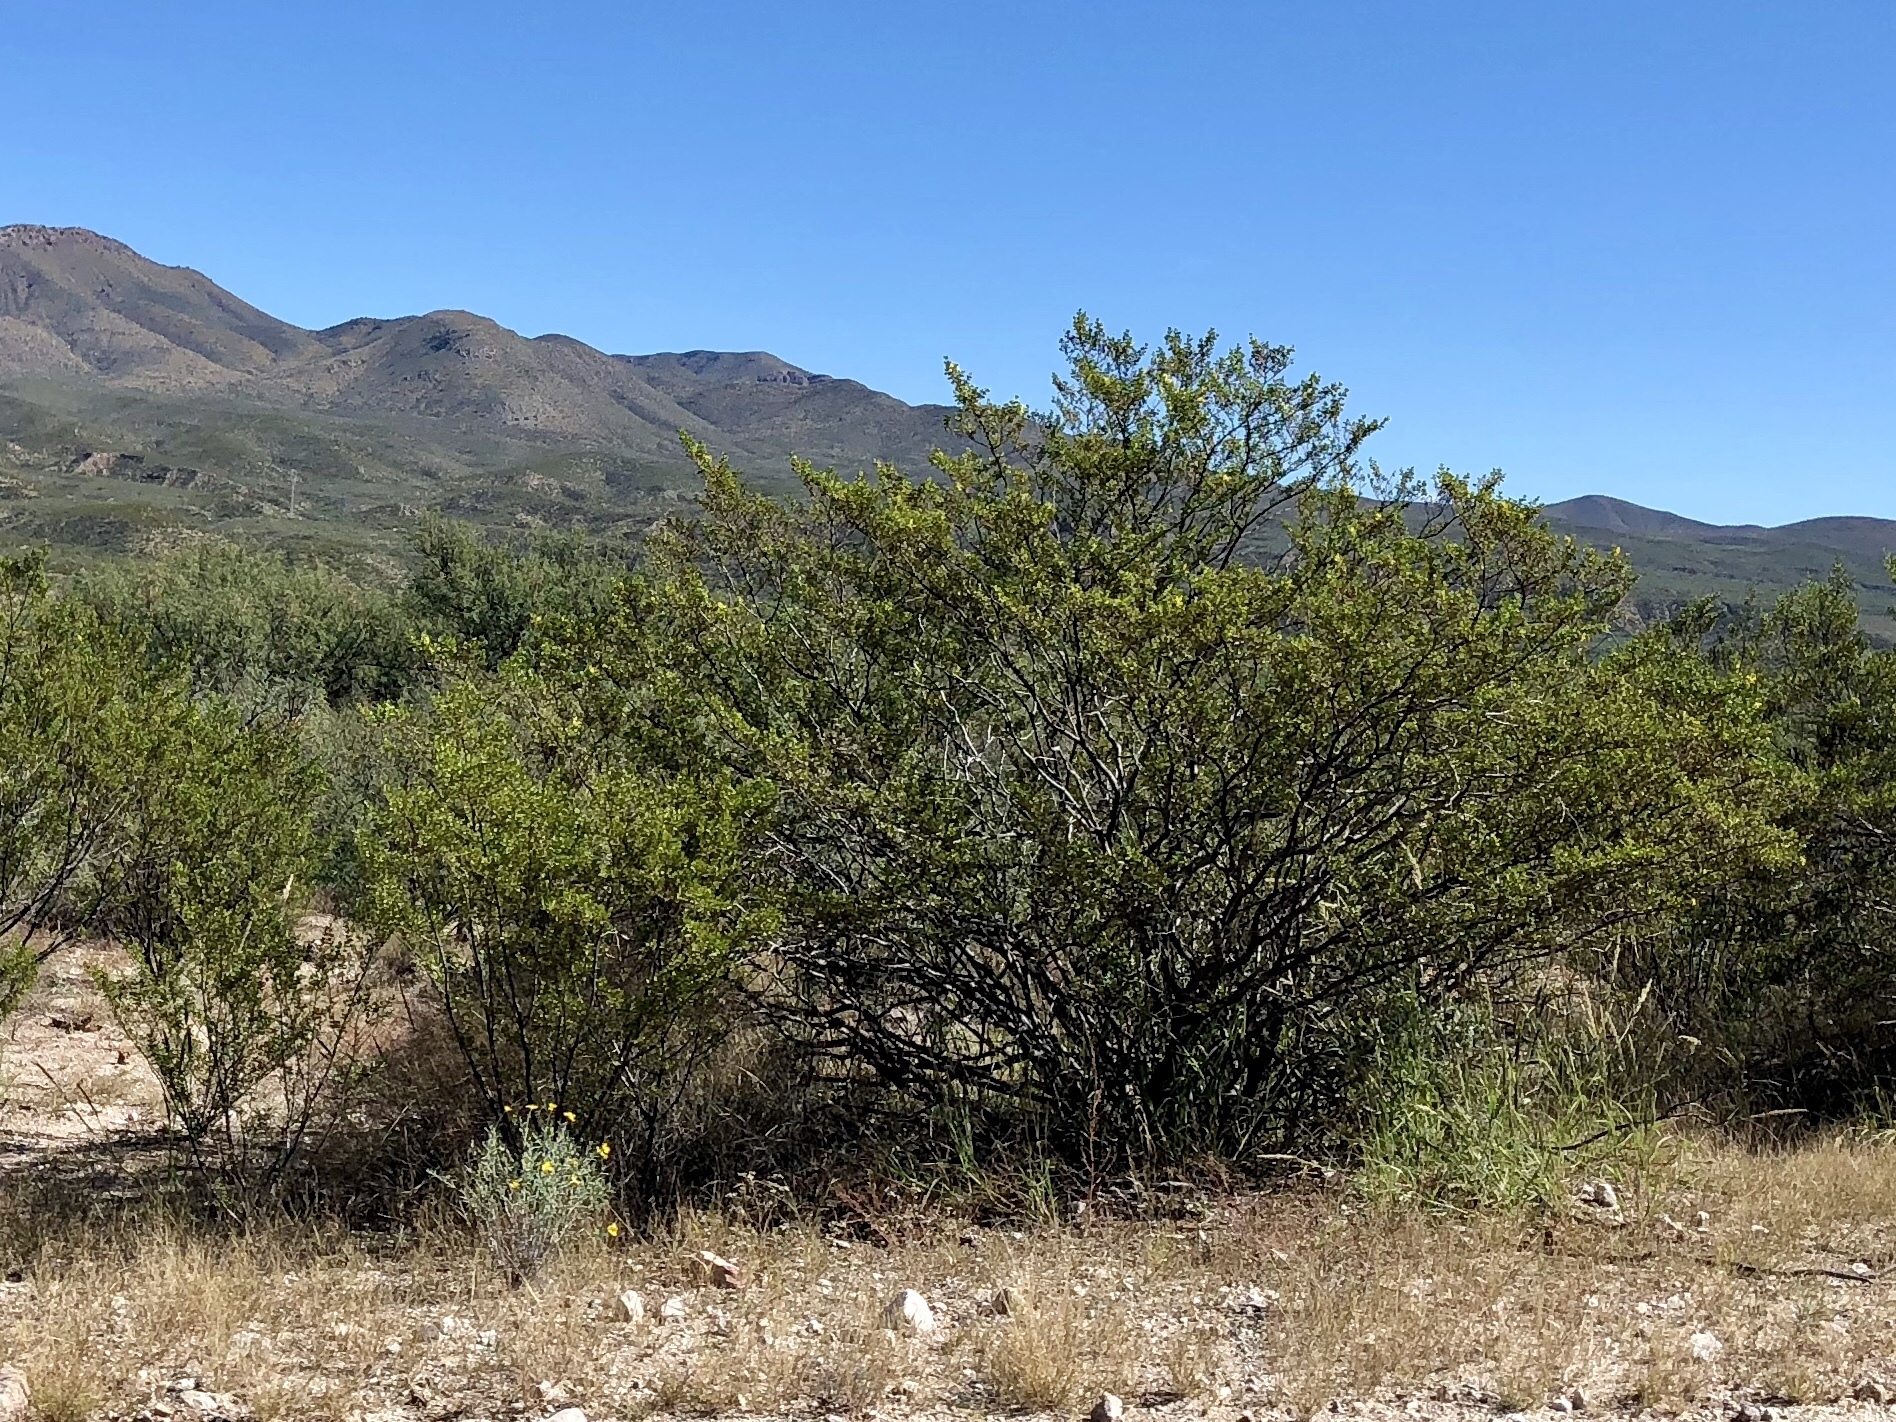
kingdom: Plantae
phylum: Tracheophyta
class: Magnoliopsida
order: Zygophyllales
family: Zygophyllaceae
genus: Larrea
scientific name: Larrea tridentata
